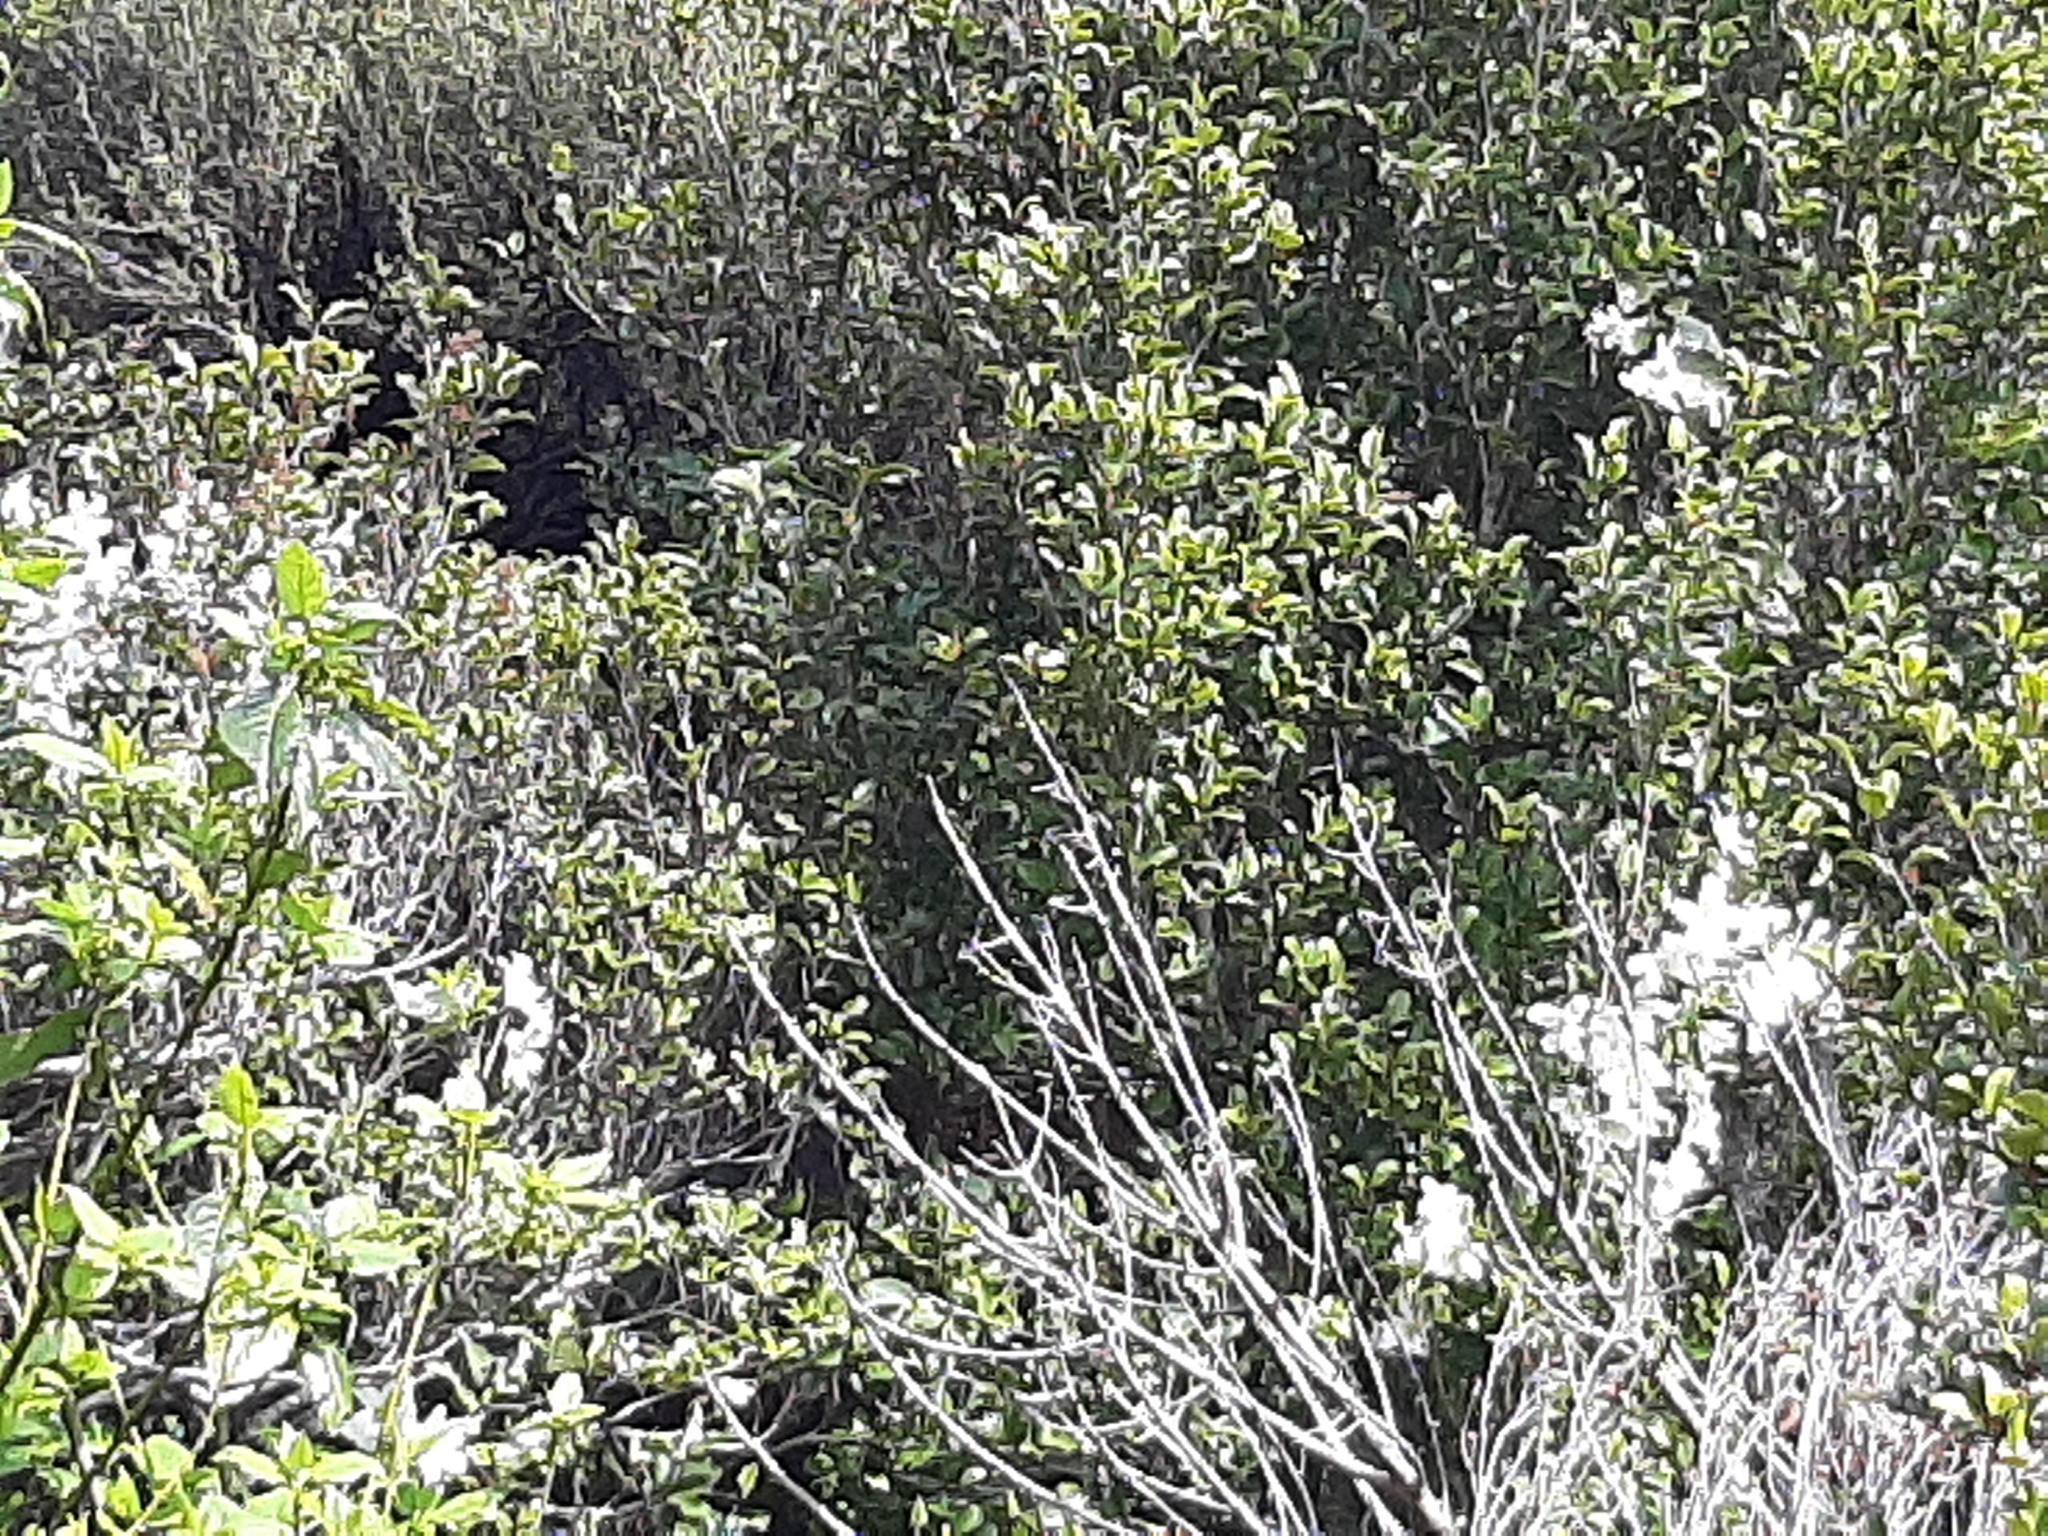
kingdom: Plantae
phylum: Tracheophyta
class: Magnoliopsida
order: Ranunculales
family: Ranunculaceae
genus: Clematis
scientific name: Clematis paniculata
